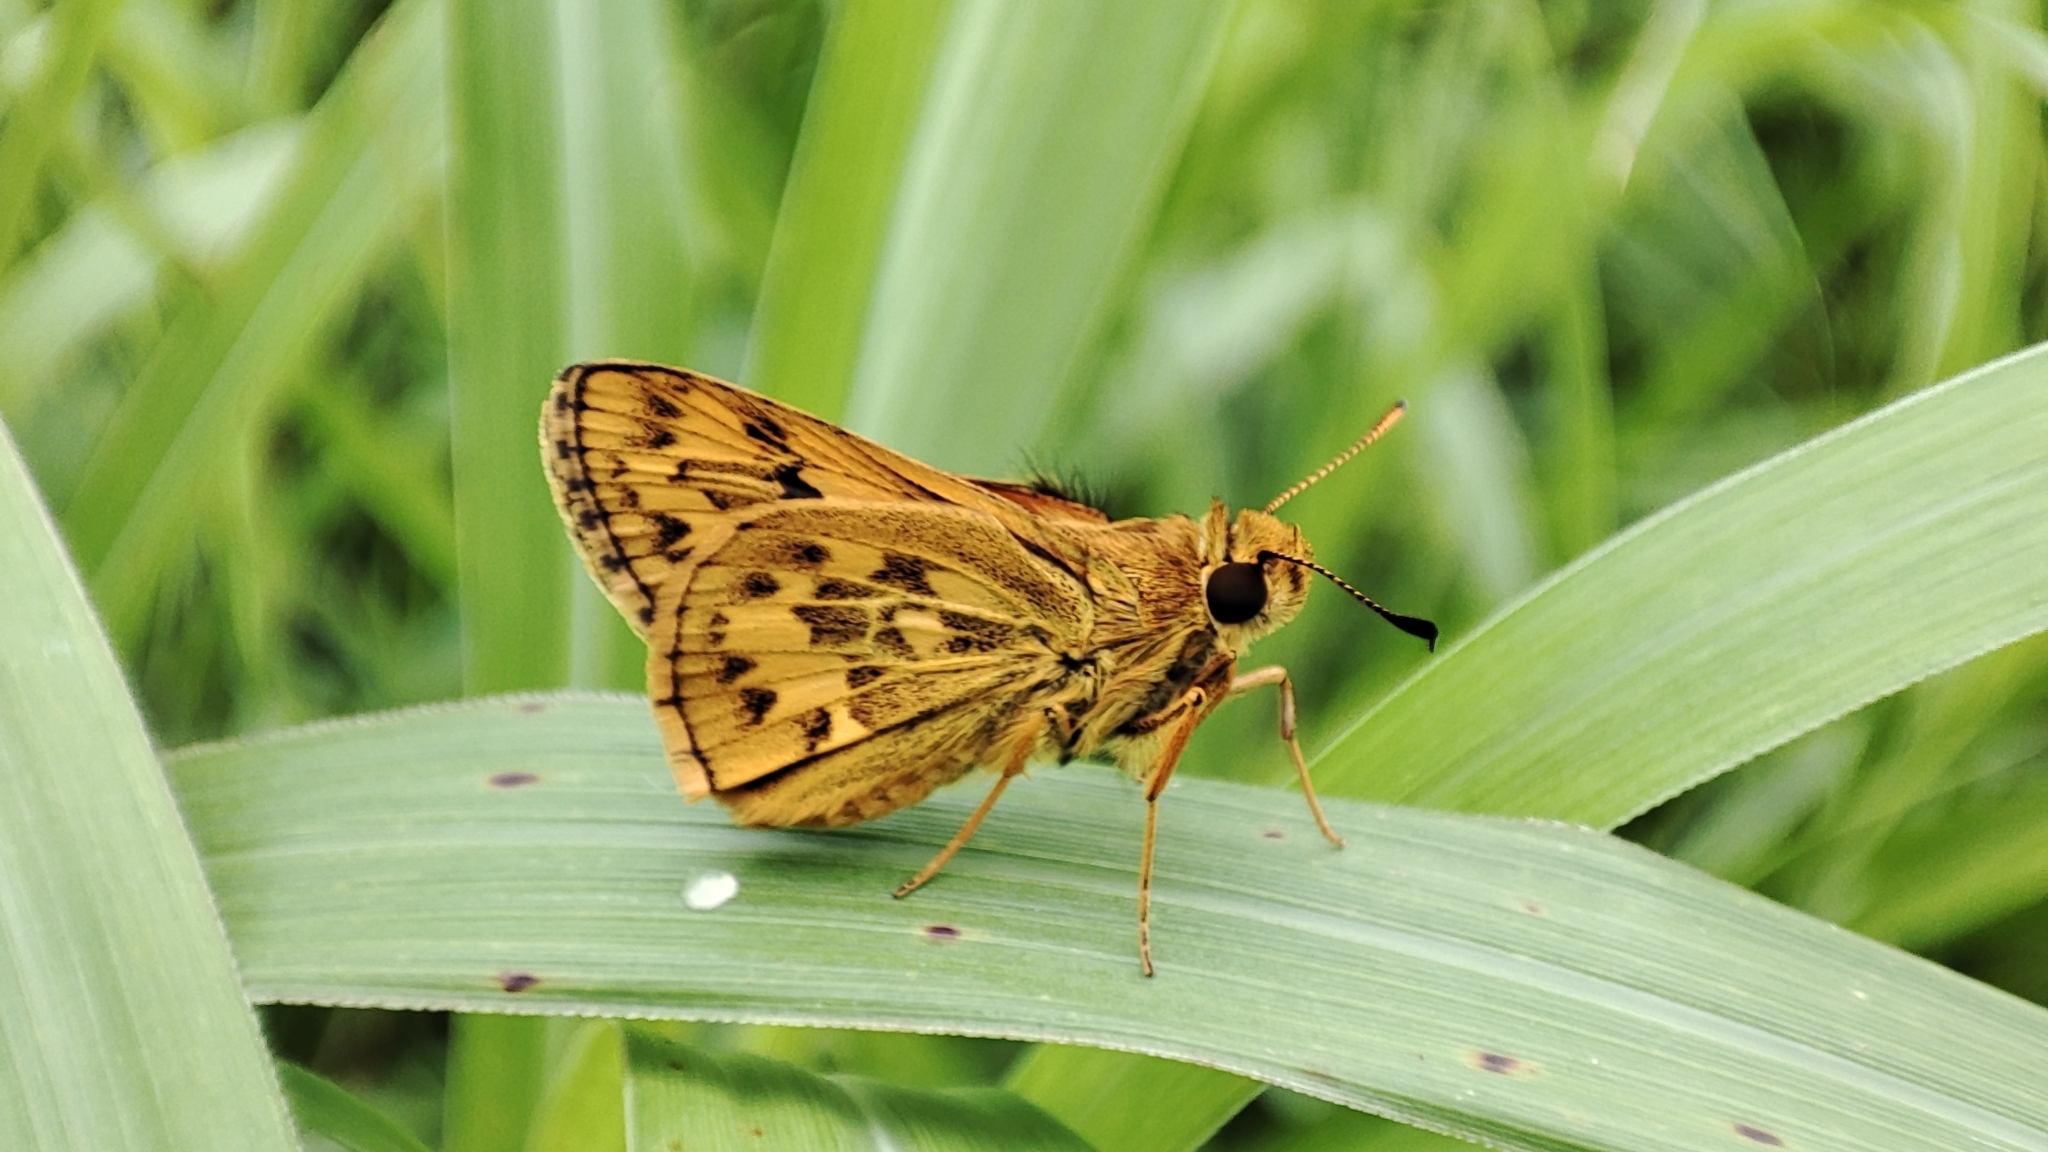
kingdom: Animalia
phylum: Arthropoda
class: Insecta
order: Lepidoptera
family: Hesperiidae
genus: Potanthus
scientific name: Potanthus flava
